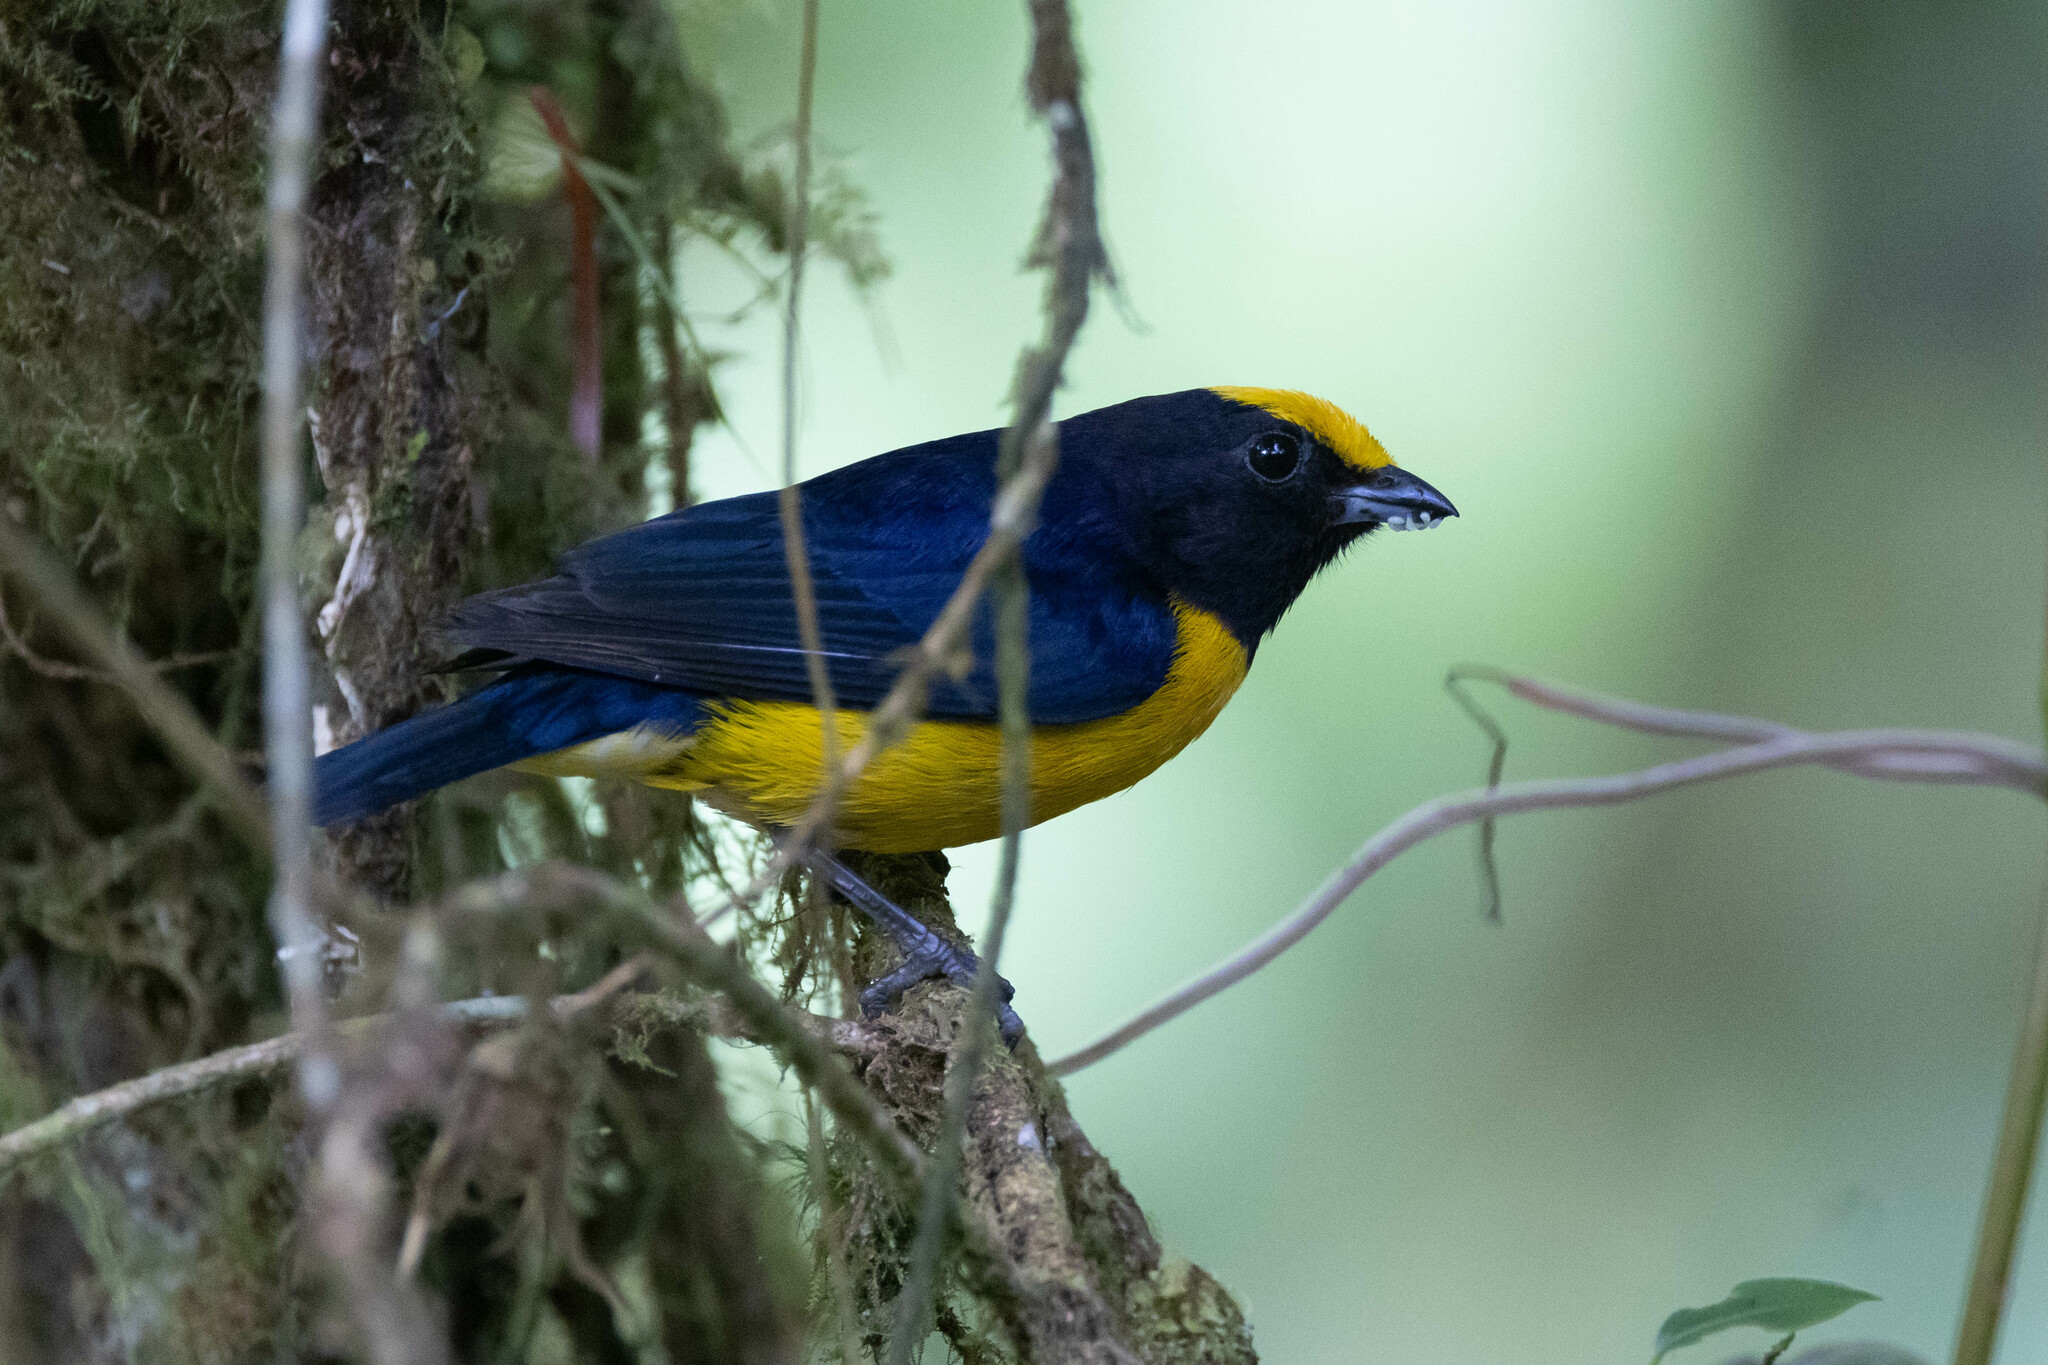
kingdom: Animalia
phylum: Chordata
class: Aves
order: Passeriformes
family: Fringillidae
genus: Euphonia
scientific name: Euphonia xanthogaster
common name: Orange-bellied euphonia
